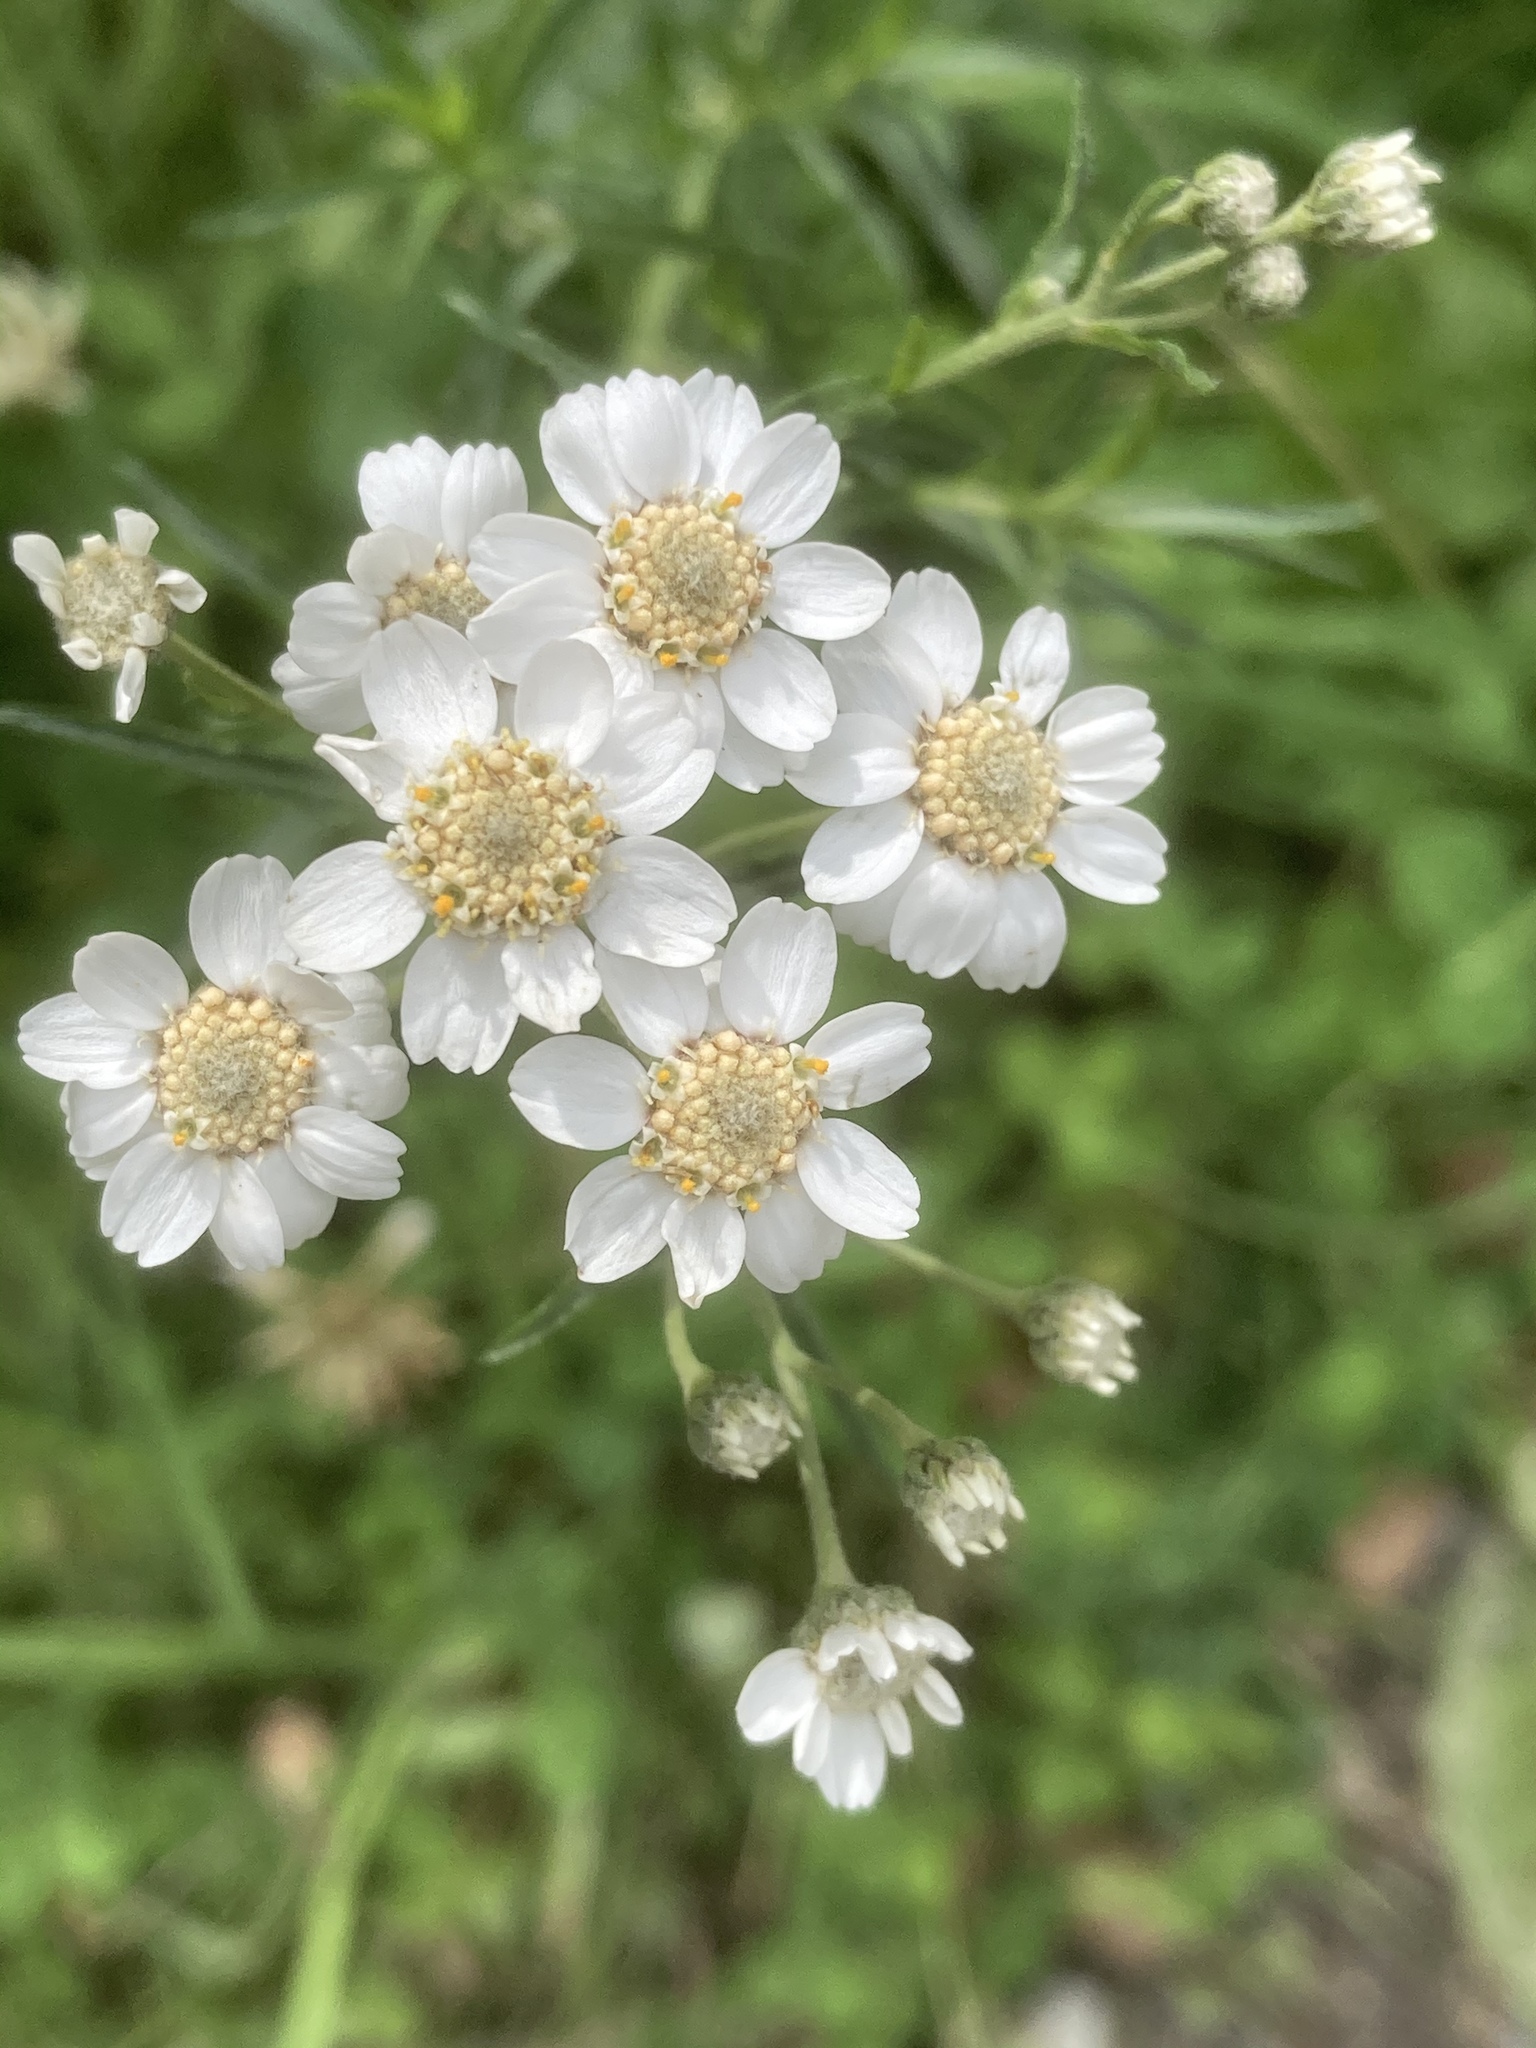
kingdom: Plantae
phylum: Tracheophyta
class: Magnoliopsida
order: Asterales
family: Asteraceae
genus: Achillea
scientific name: Achillea ptarmica
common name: Sneezeweed
